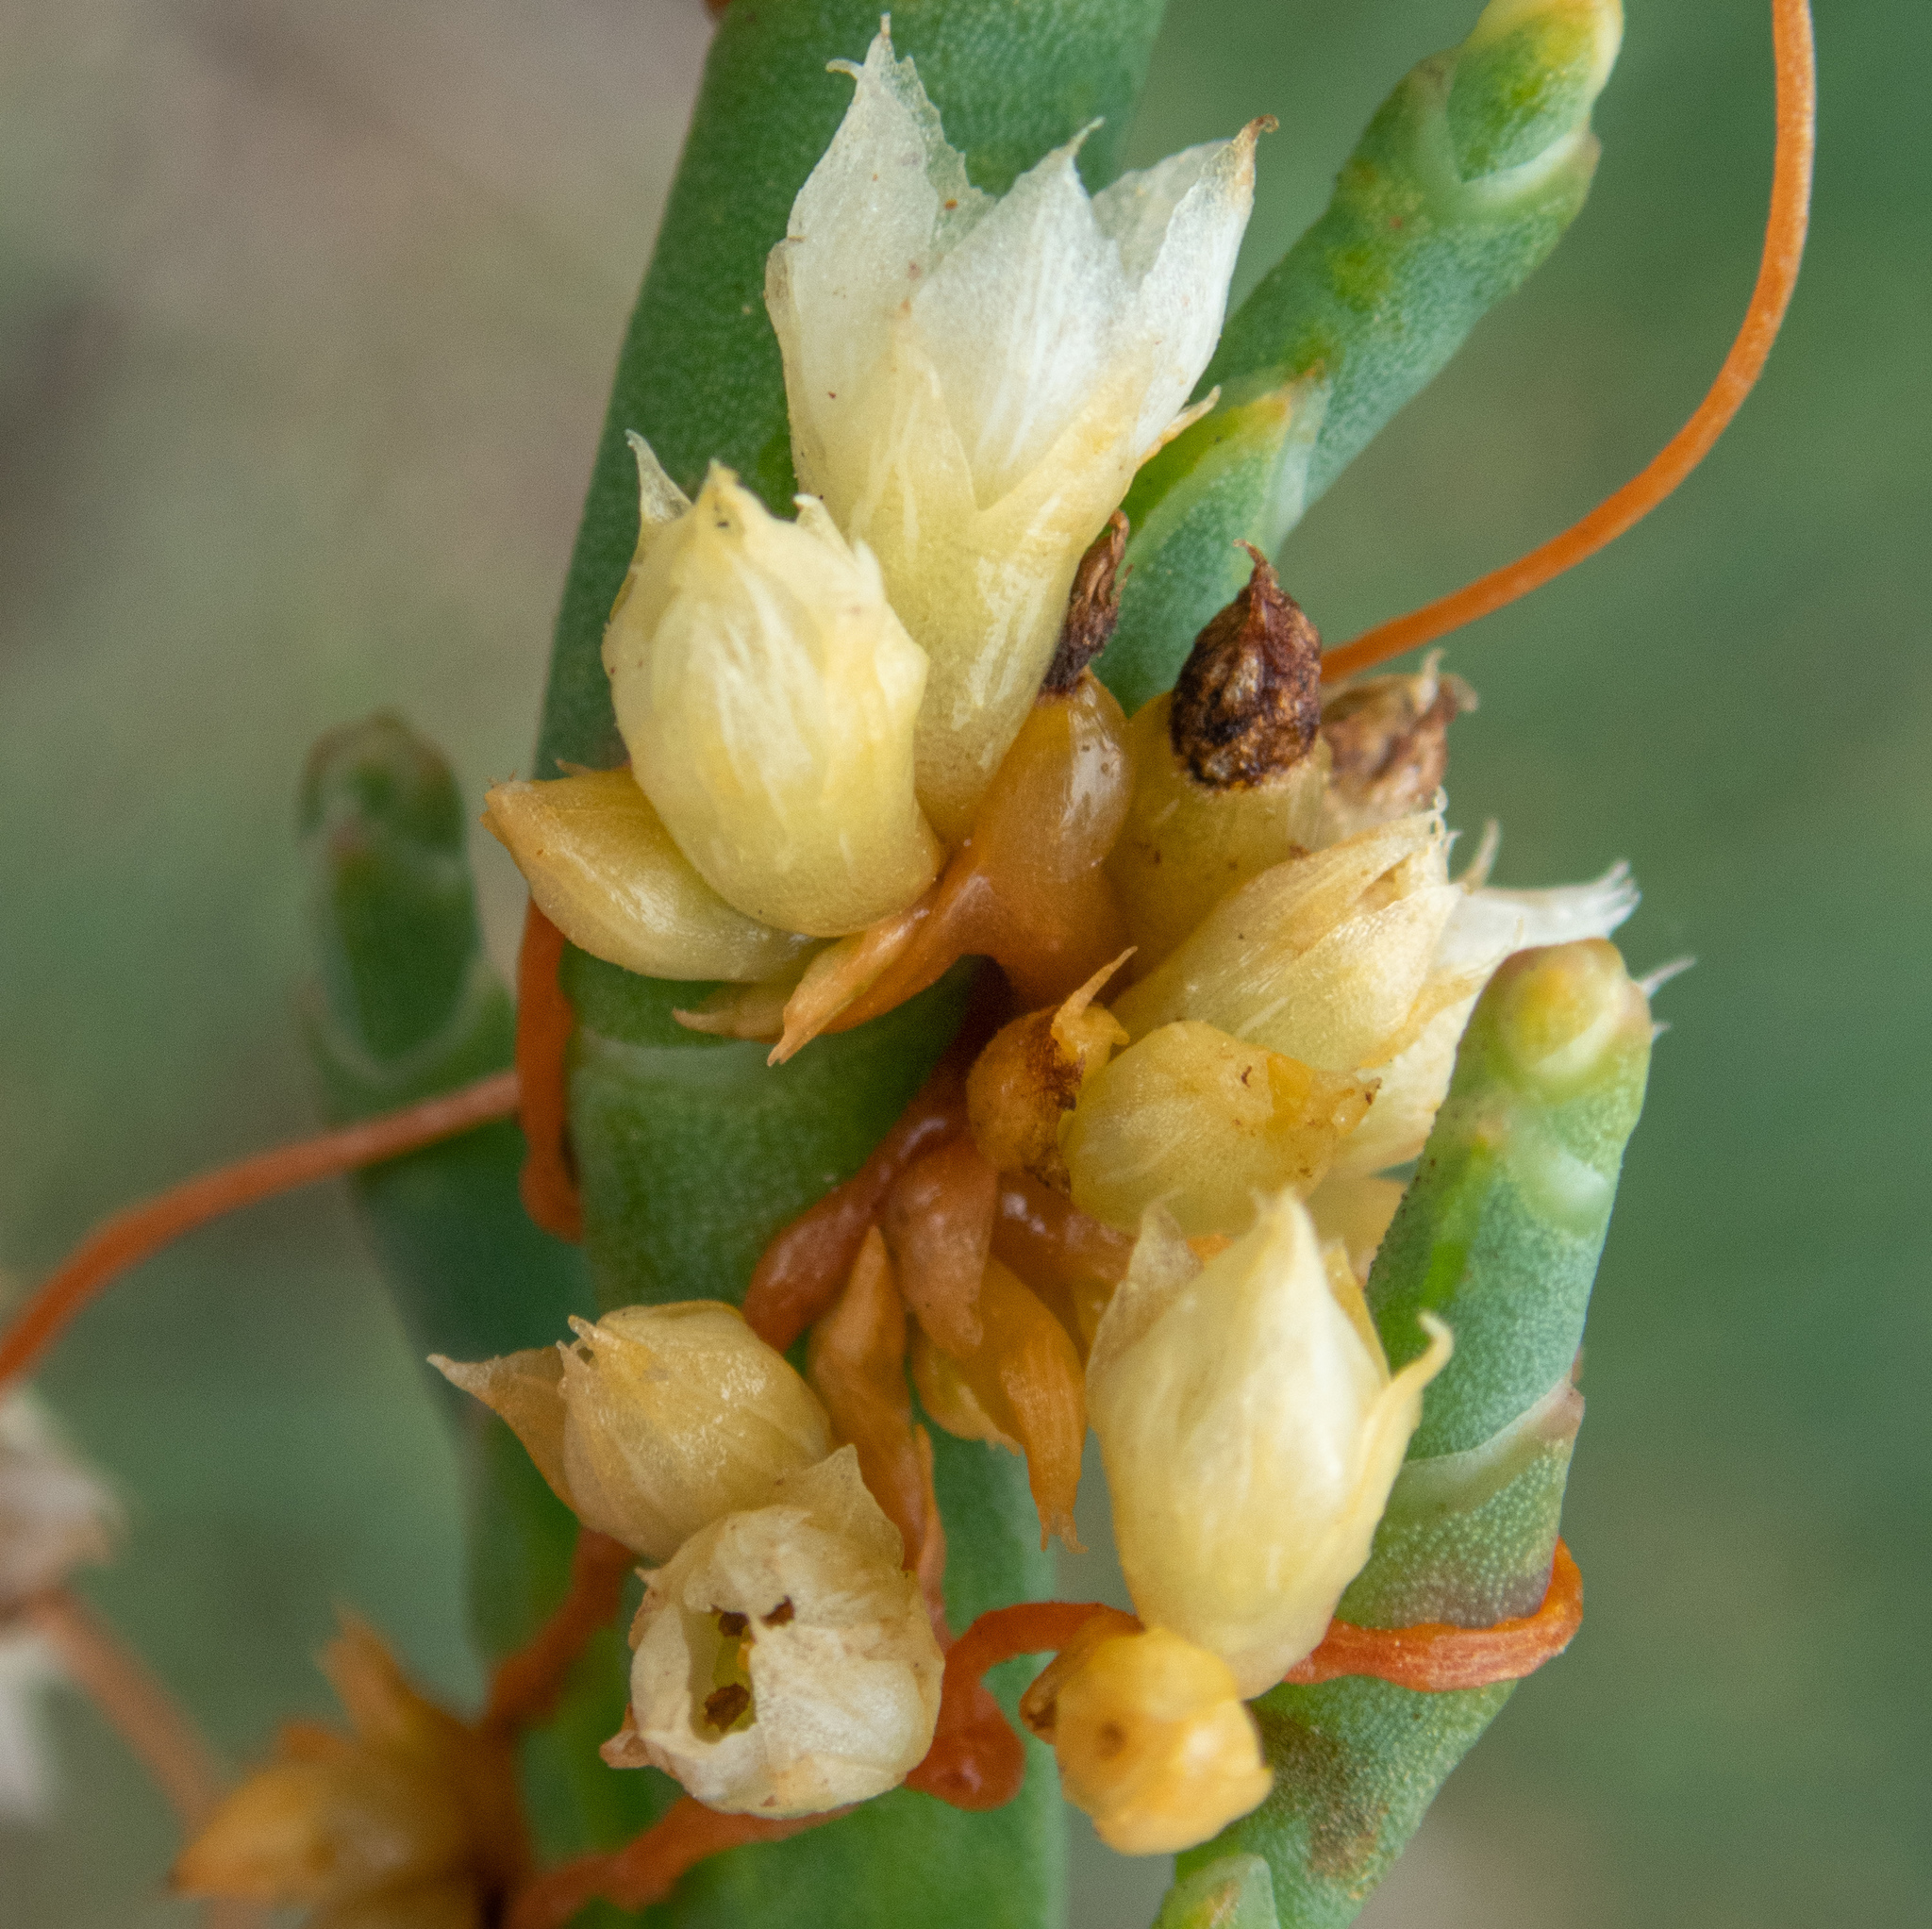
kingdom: Plantae
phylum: Tracheophyta
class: Magnoliopsida
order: Solanales
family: Convolvulaceae
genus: Cuscuta
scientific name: Cuscuta pacifica
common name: Large saltmarsh dodder
